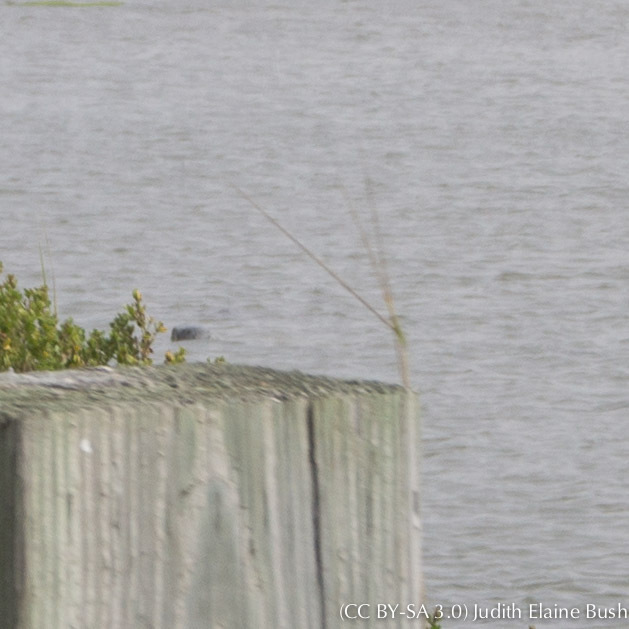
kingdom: Animalia
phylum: Chordata
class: Mammalia
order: Carnivora
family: Phocidae
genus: Phoca
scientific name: Phoca vitulina
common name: Harbor seal
